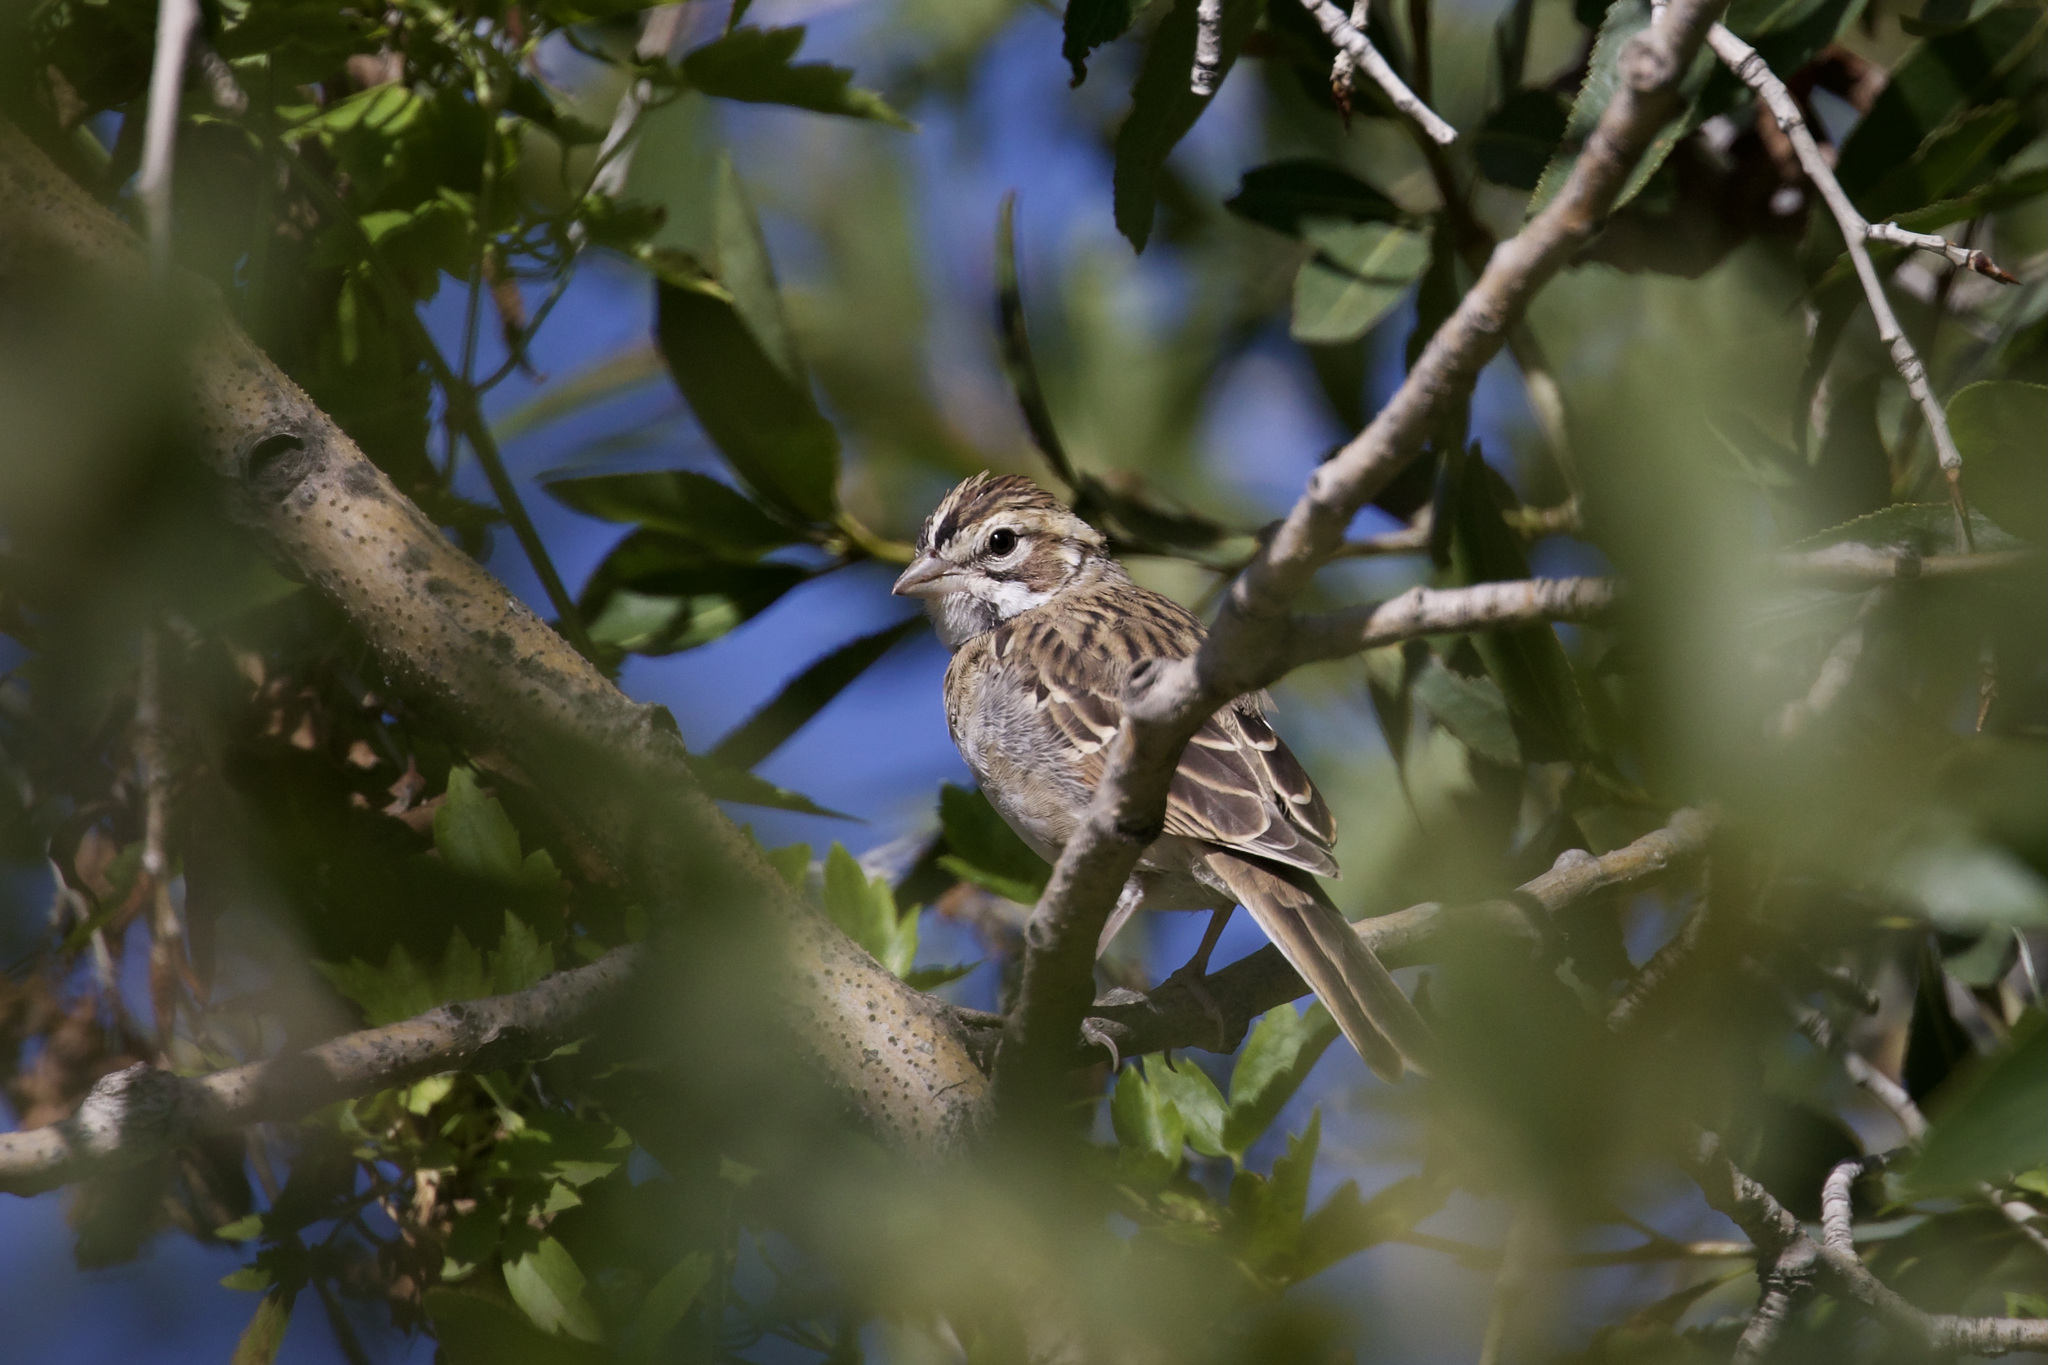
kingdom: Animalia
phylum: Chordata
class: Aves
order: Passeriformes
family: Passerellidae
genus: Chondestes
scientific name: Chondestes grammacus
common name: Lark sparrow
